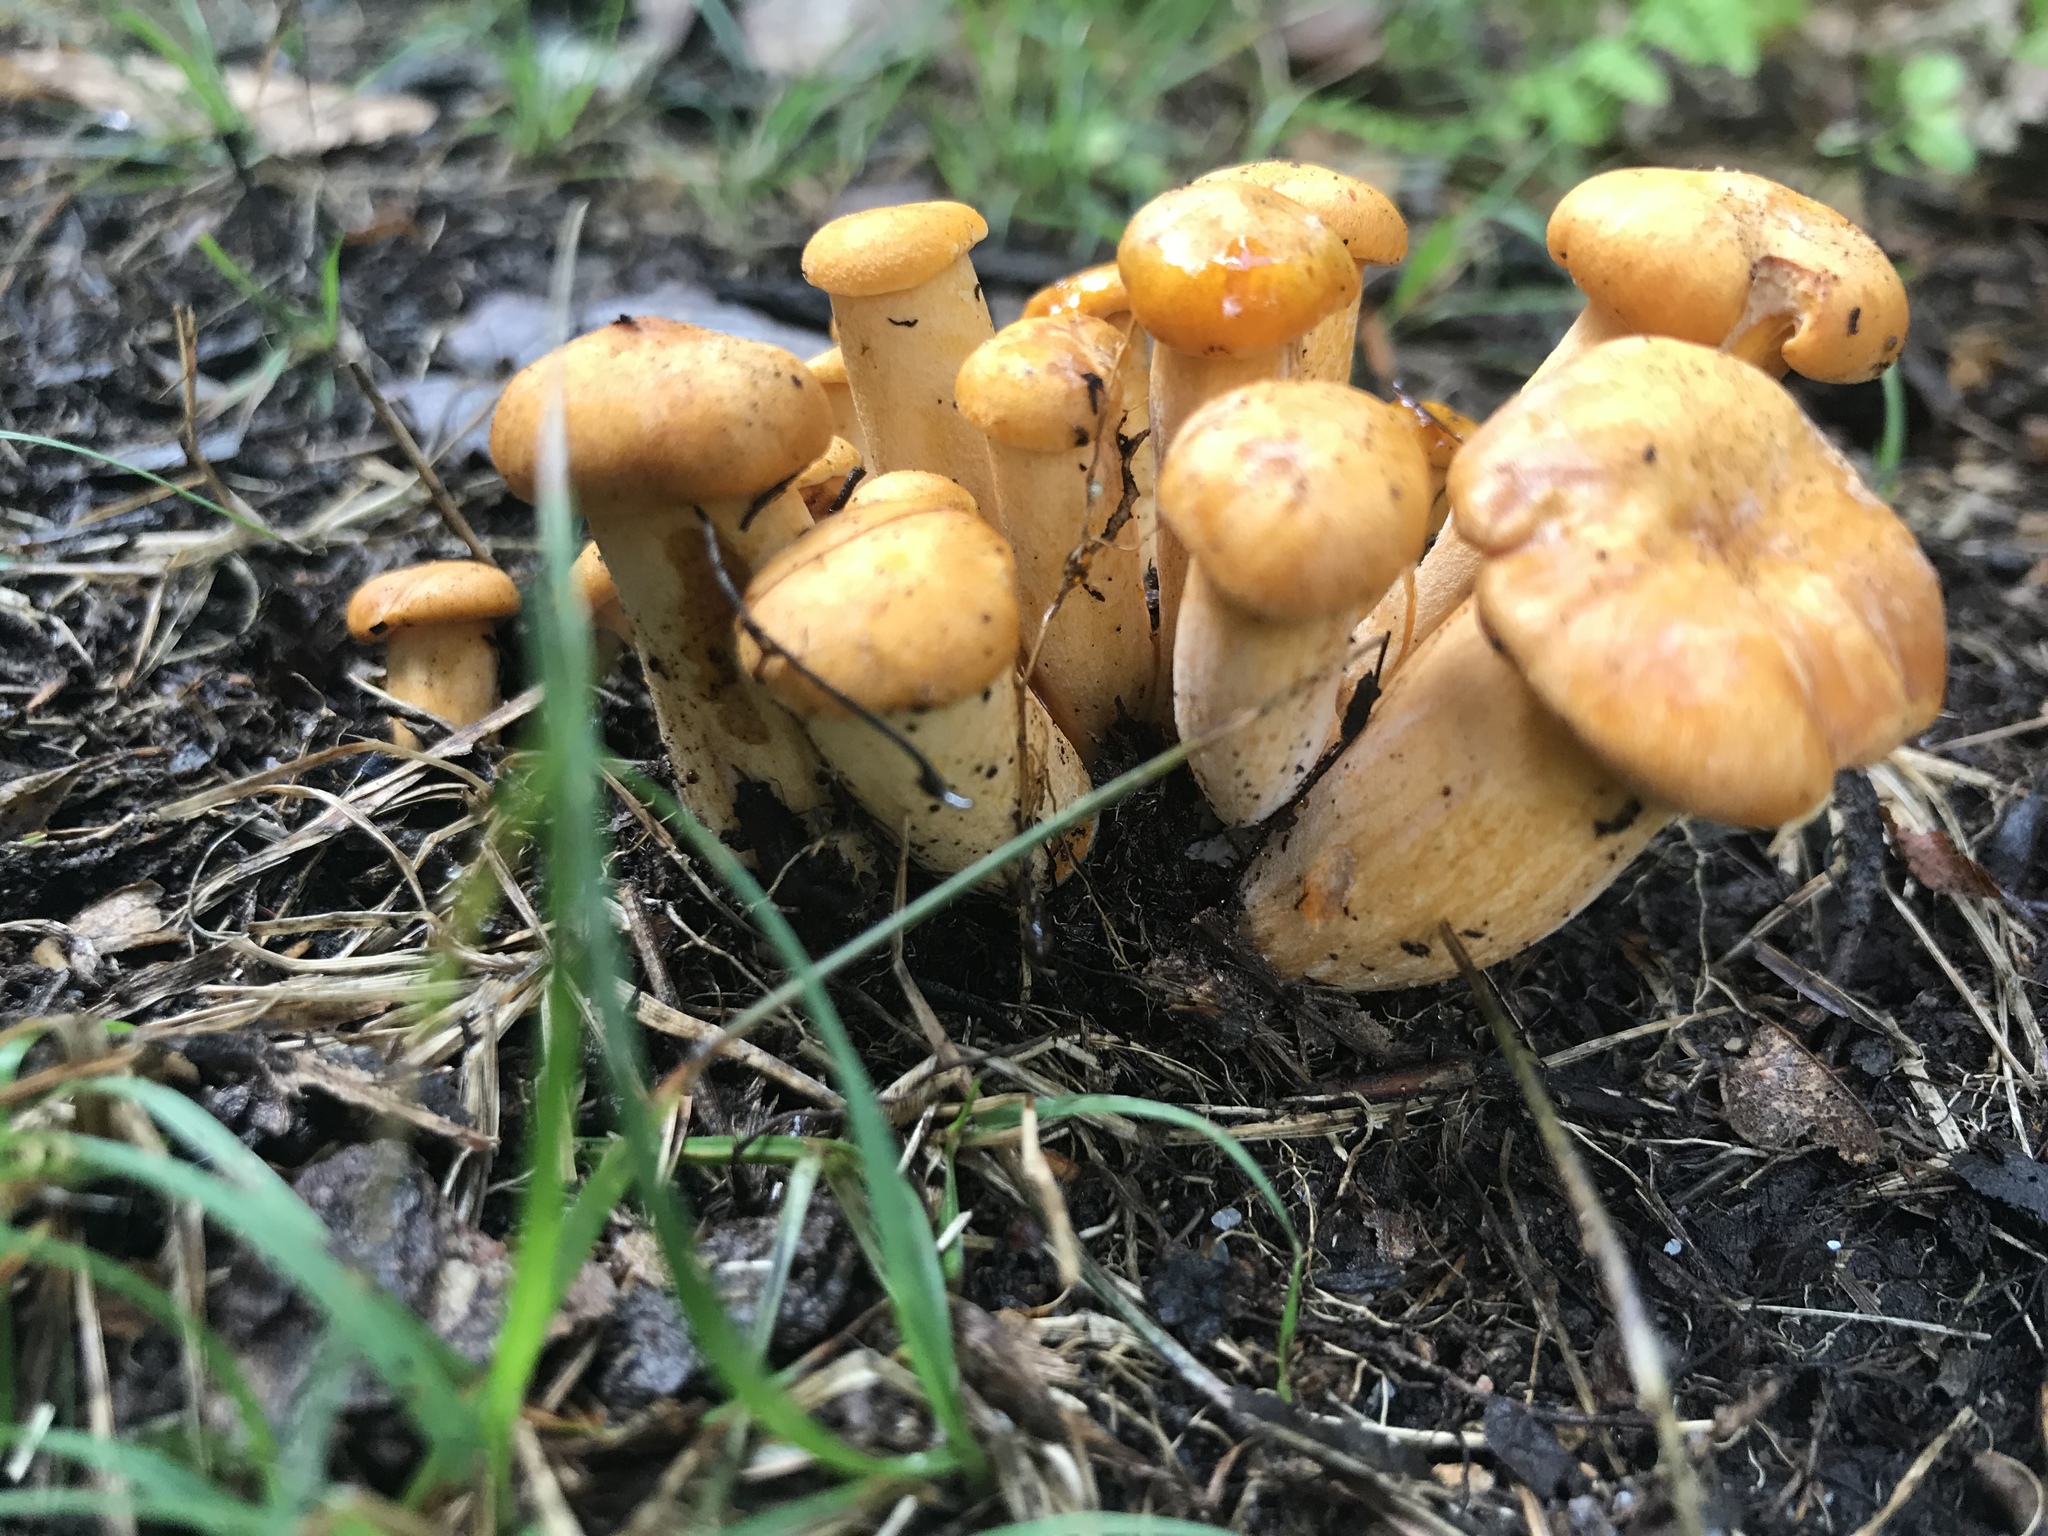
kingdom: Fungi
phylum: Basidiomycota
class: Agaricomycetes
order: Agaricales
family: Omphalotaceae
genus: Omphalotus
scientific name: Omphalotus illudens
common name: Jack o lantern
